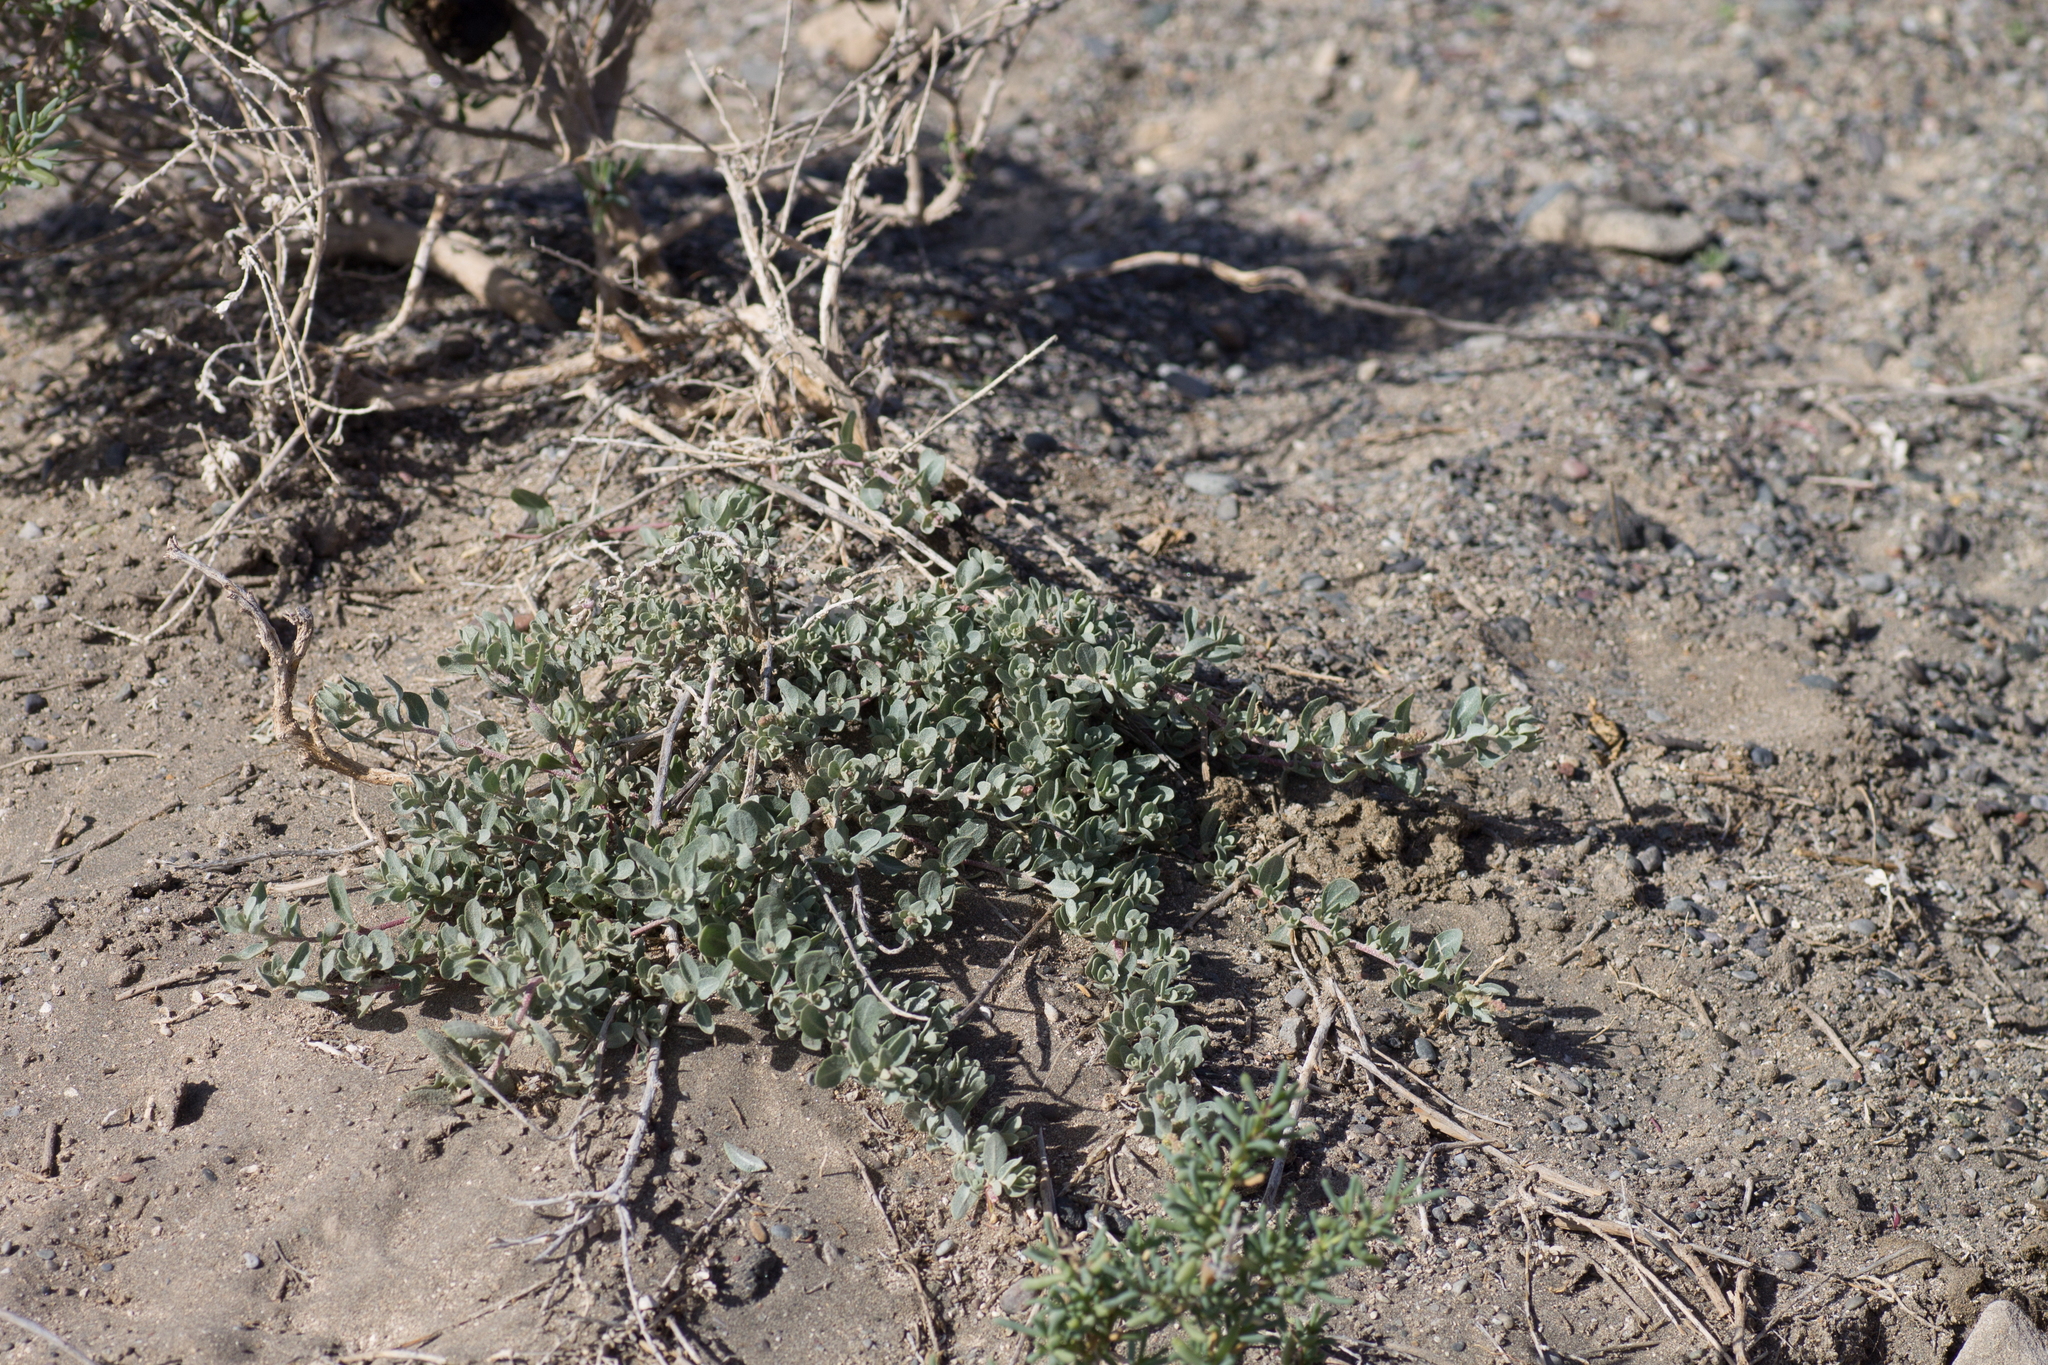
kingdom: Plantae
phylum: Tracheophyta
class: Magnoliopsida
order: Caryophyllales
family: Amaranthaceae
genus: Atriplex
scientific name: Atriplex glauca
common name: Waxy saltbush
